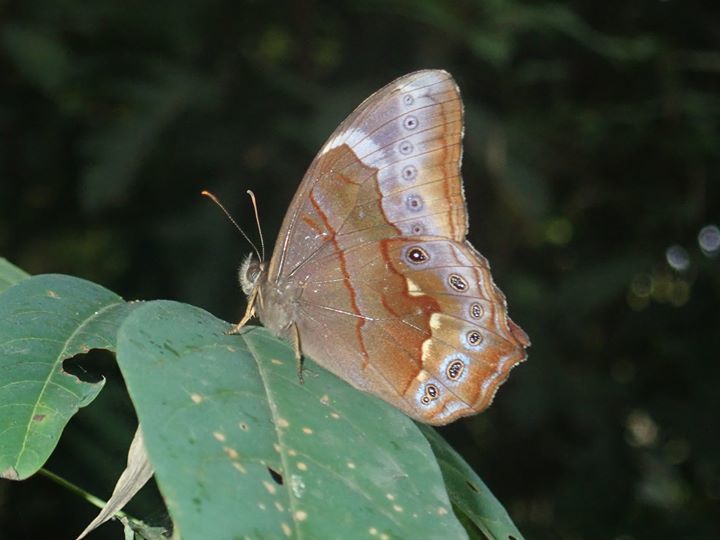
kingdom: Animalia
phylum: Arthropoda
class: Insecta
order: Lepidoptera
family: Nymphalidae
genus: Lethe
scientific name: Lethe chandica
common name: Angled red forester
